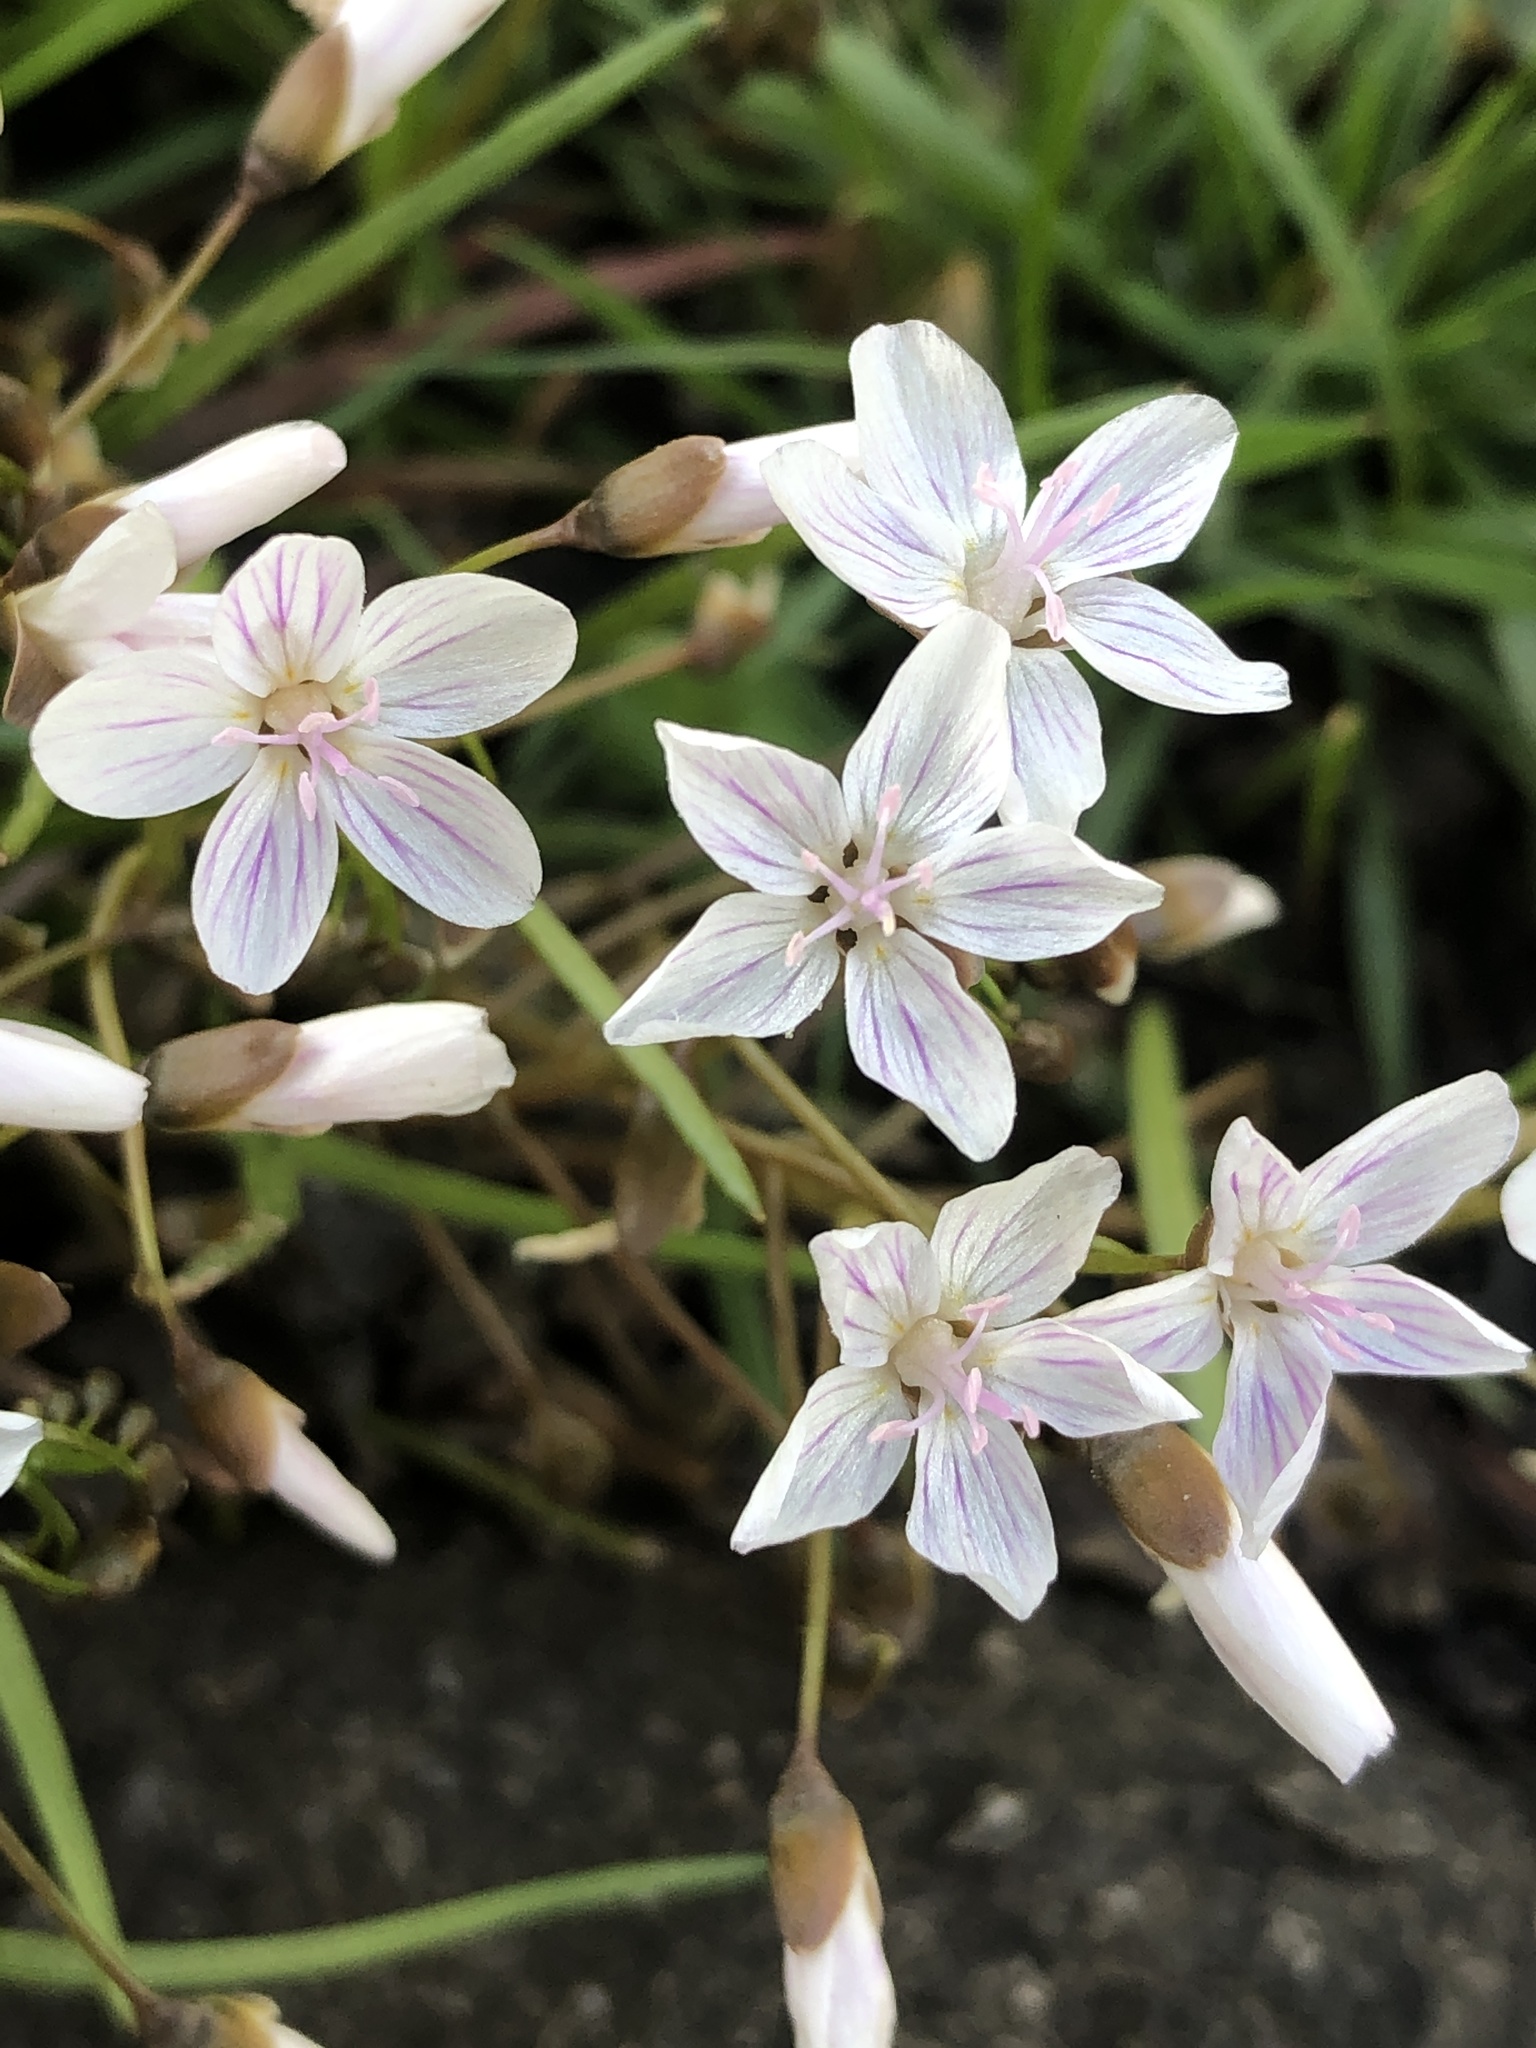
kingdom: Plantae
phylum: Tracheophyta
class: Magnoliopsida
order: Caryophyllales
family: Montiaceae
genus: Claytonia
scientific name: Claytonia virginica
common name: Virginia springbeauty
